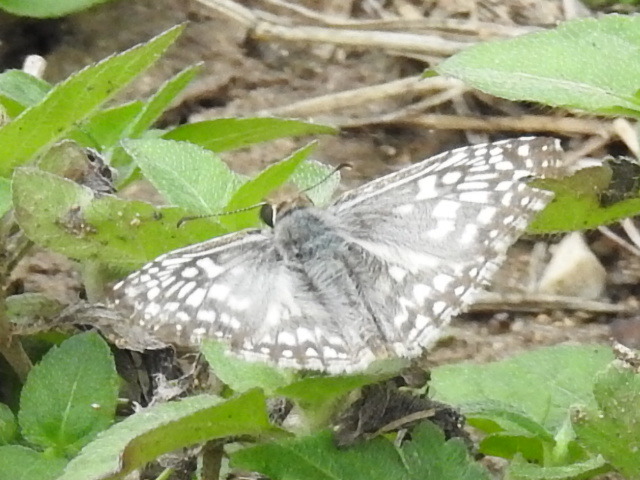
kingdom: Animalia
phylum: Arthropoda
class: Insecta
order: Lepidoptera
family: Hesperiidae
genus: Pyrgus
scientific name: Pyrgus oileus
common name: Tropical checkered-skipper
